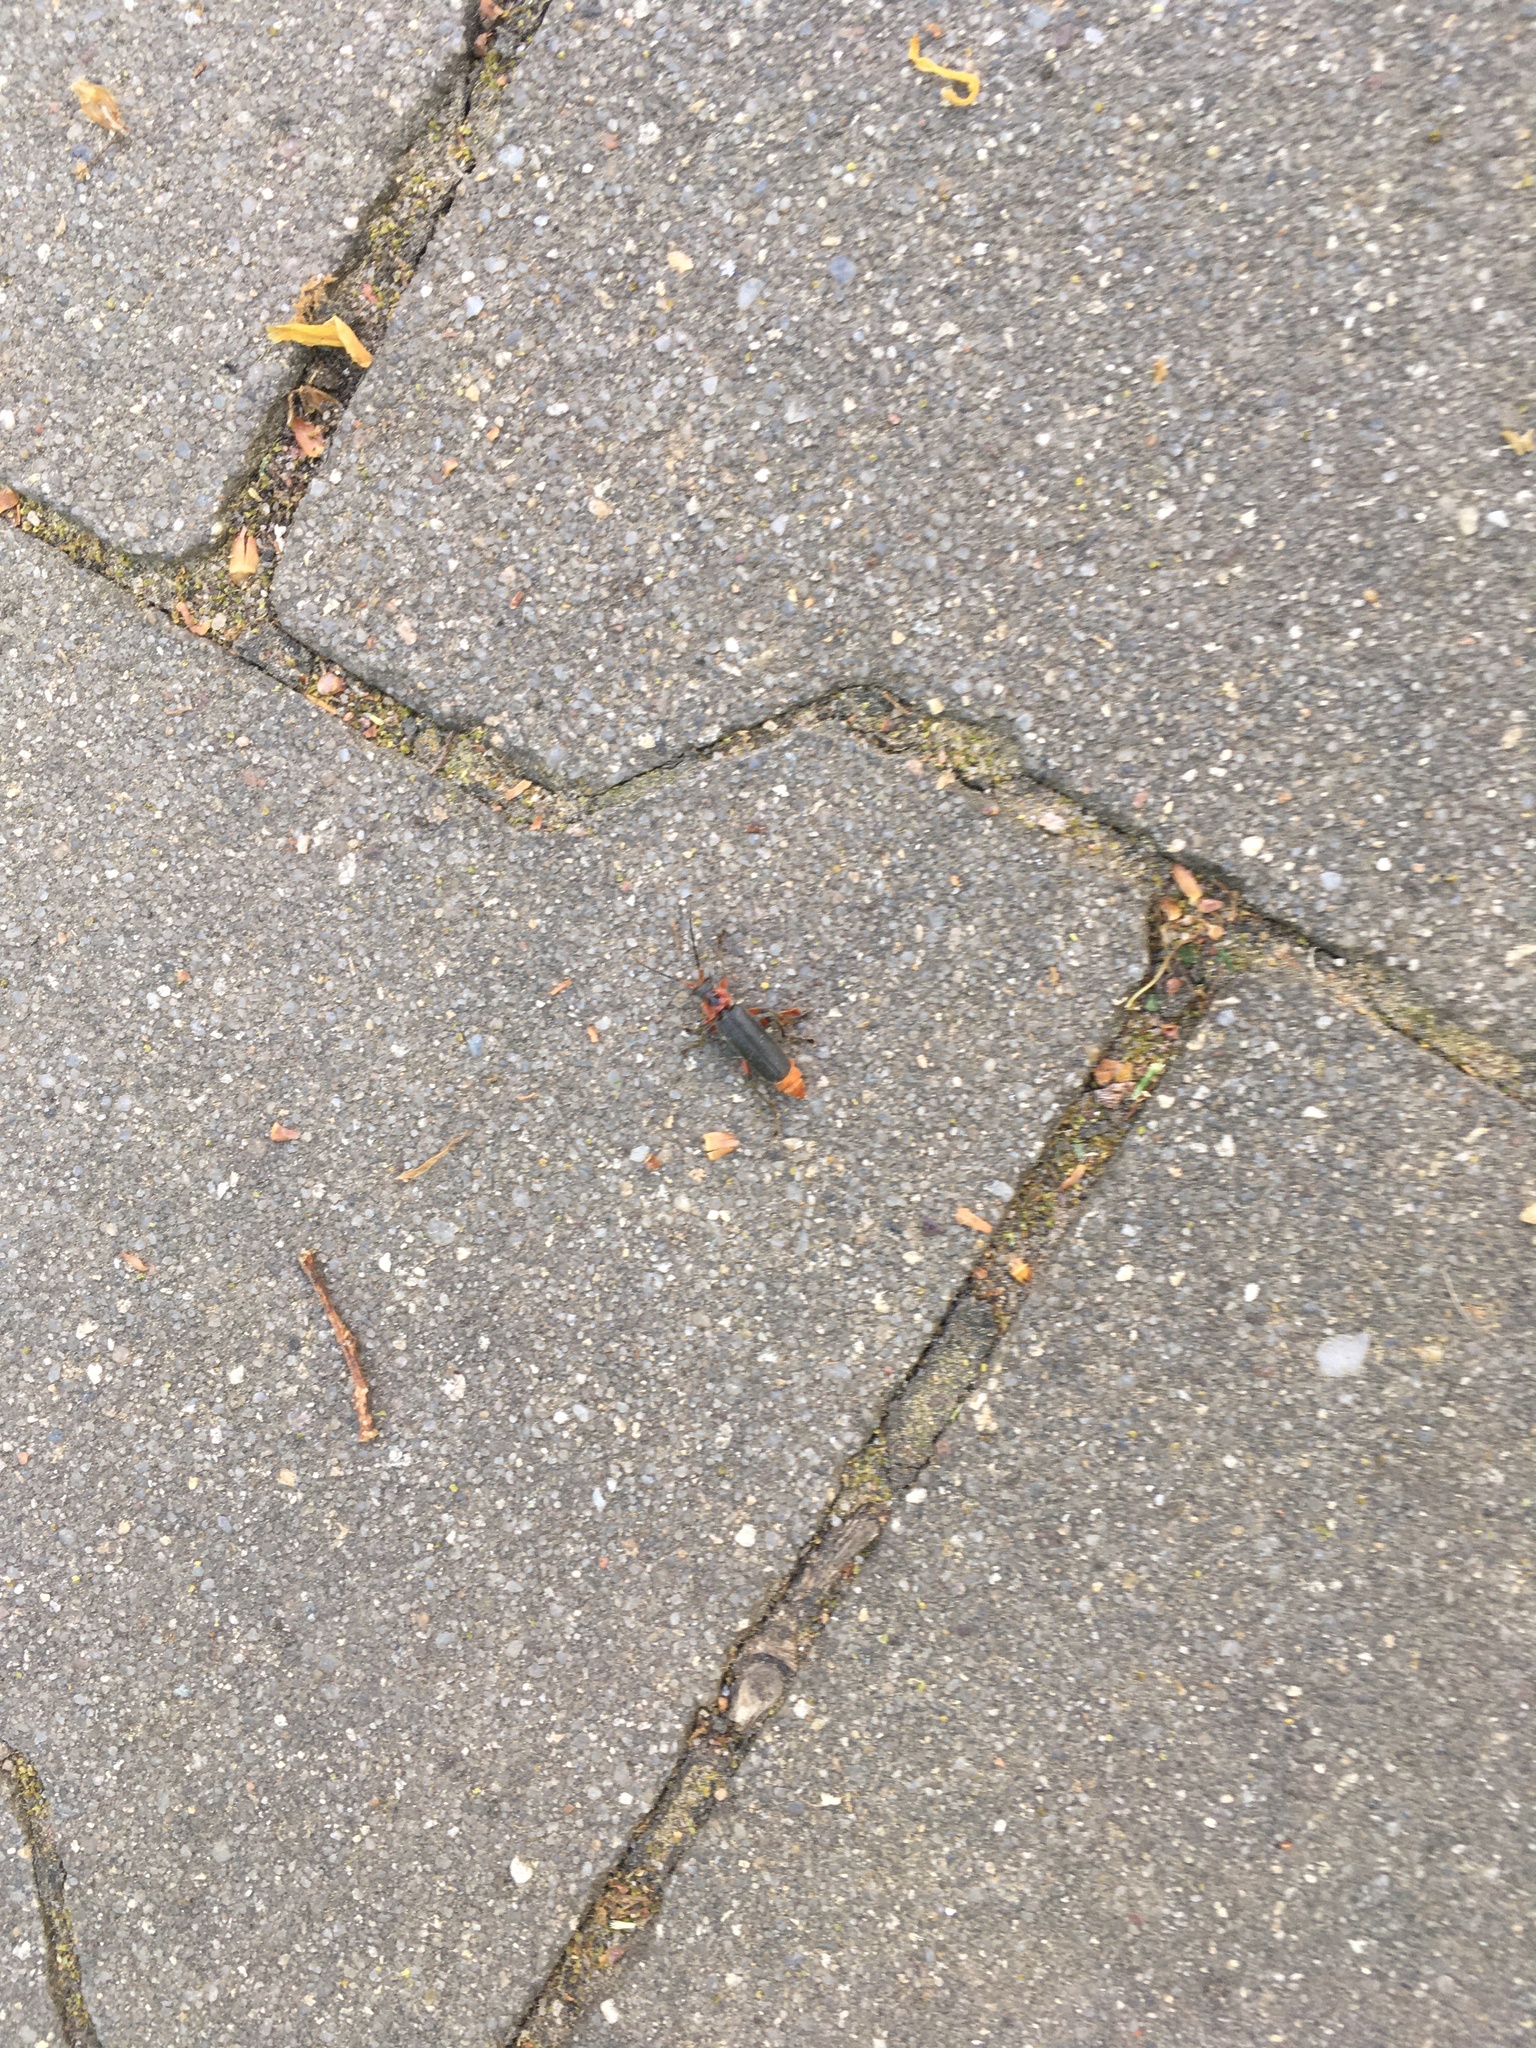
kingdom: Animalia
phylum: Arthropoda
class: Insecta
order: Coleoptera
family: Cantharidae
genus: Cantharis
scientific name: Cantharis rustica
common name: Soldier beetle
